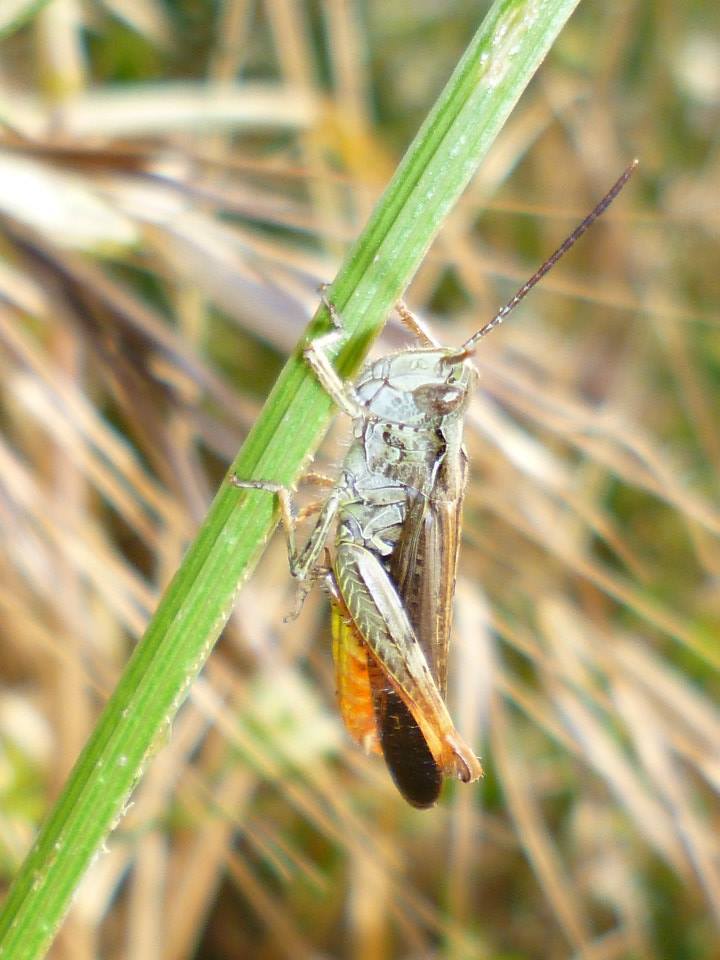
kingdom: Animalia
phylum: Arthropoda
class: Insecta
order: Orthoptera
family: Acrididae
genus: Chorthippus
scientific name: Chorthippus maritimus
